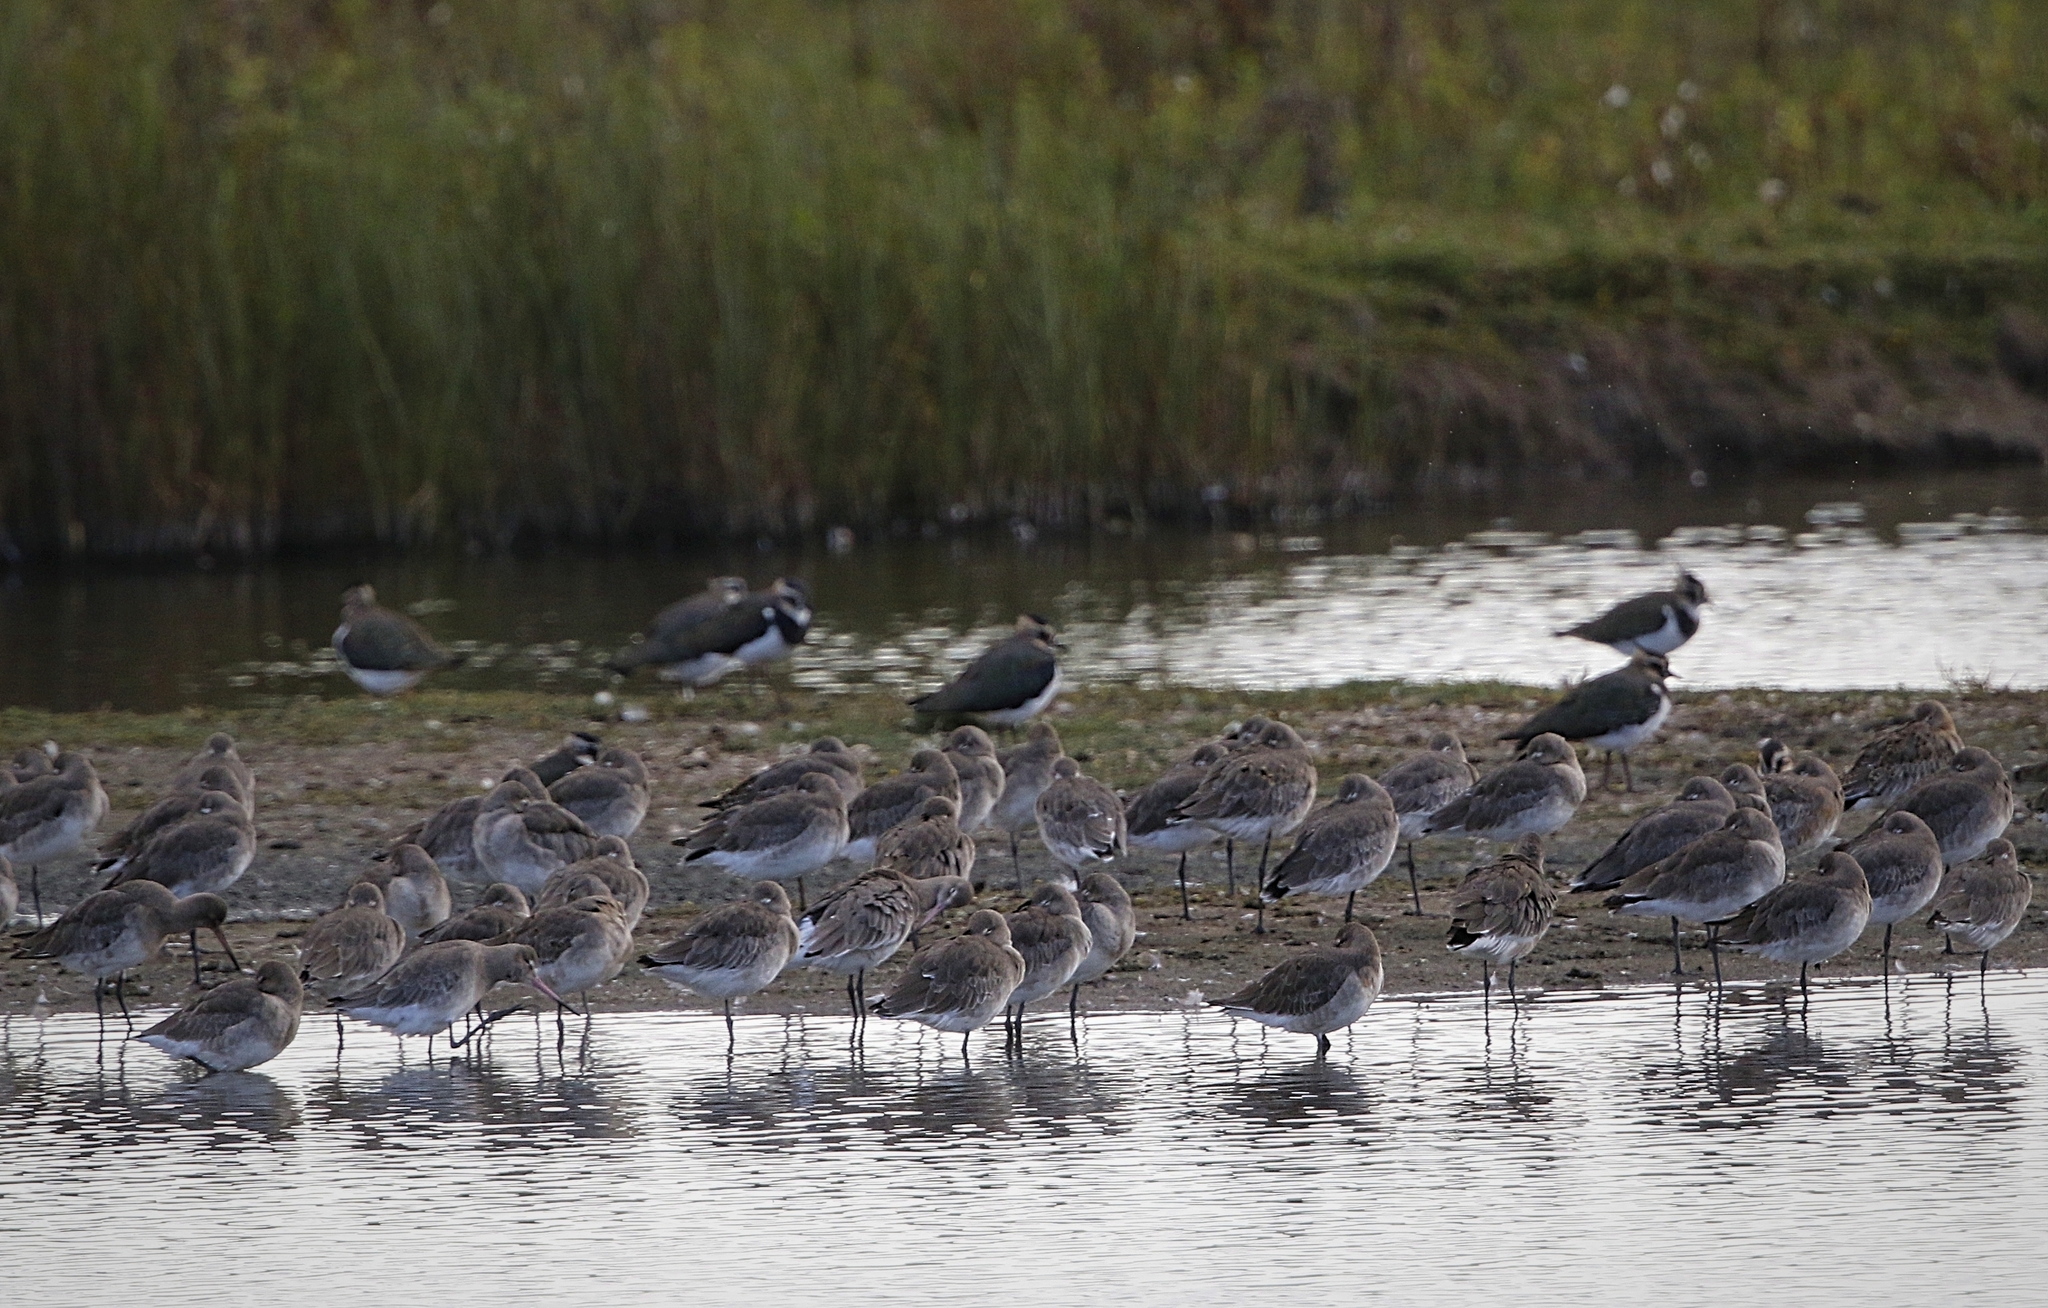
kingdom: Animalia
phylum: Chordata
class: Aves
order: Charadriiformes
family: Scolopacidae
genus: Limosa
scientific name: Limosa limosa
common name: Black-tailed godwit
